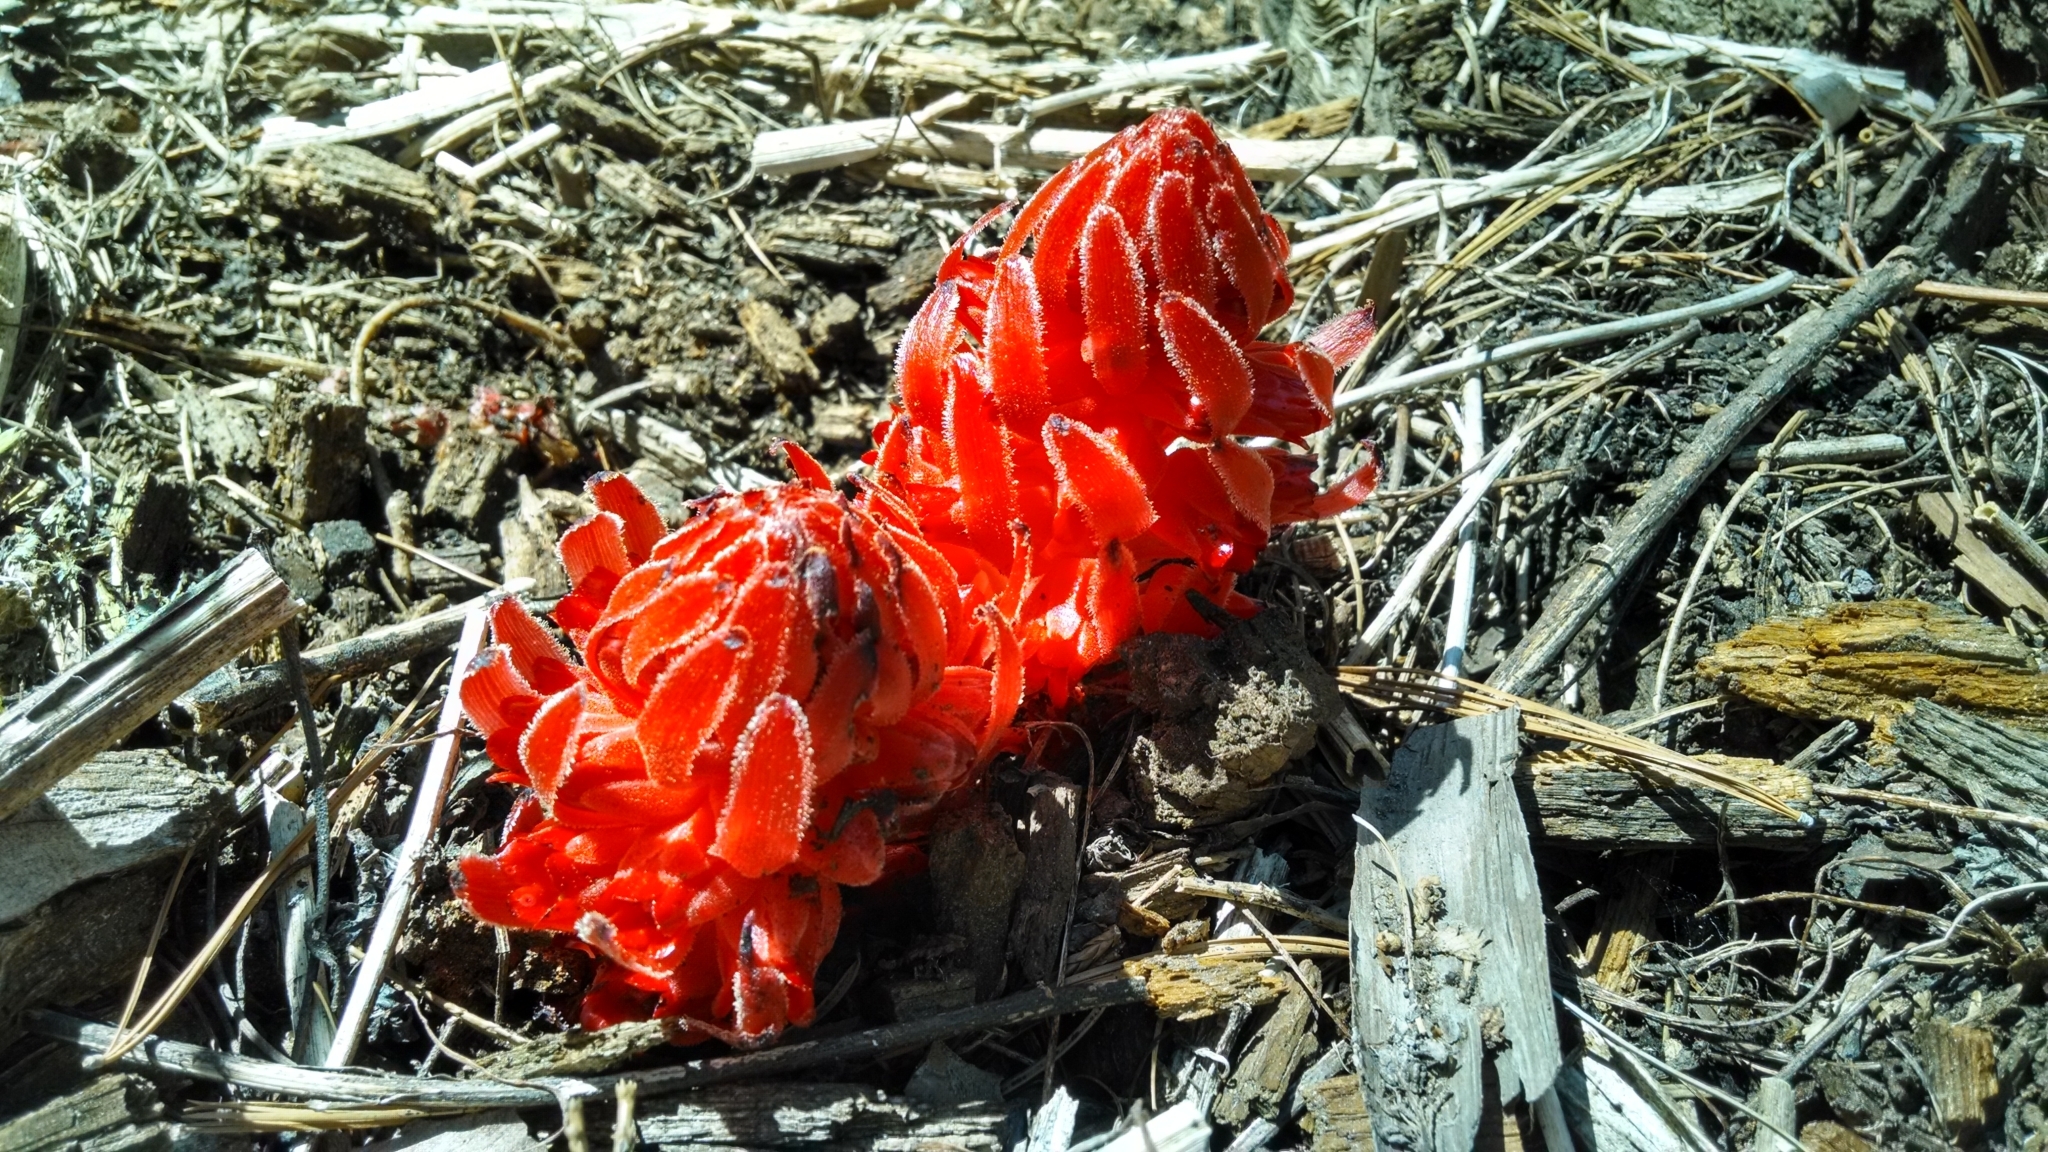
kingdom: Plantae
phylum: Tracheophyta
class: Magnoliopsida
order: Ericales
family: Ericaceae
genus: Sarcodes
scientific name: Sarcodes sanguinea
